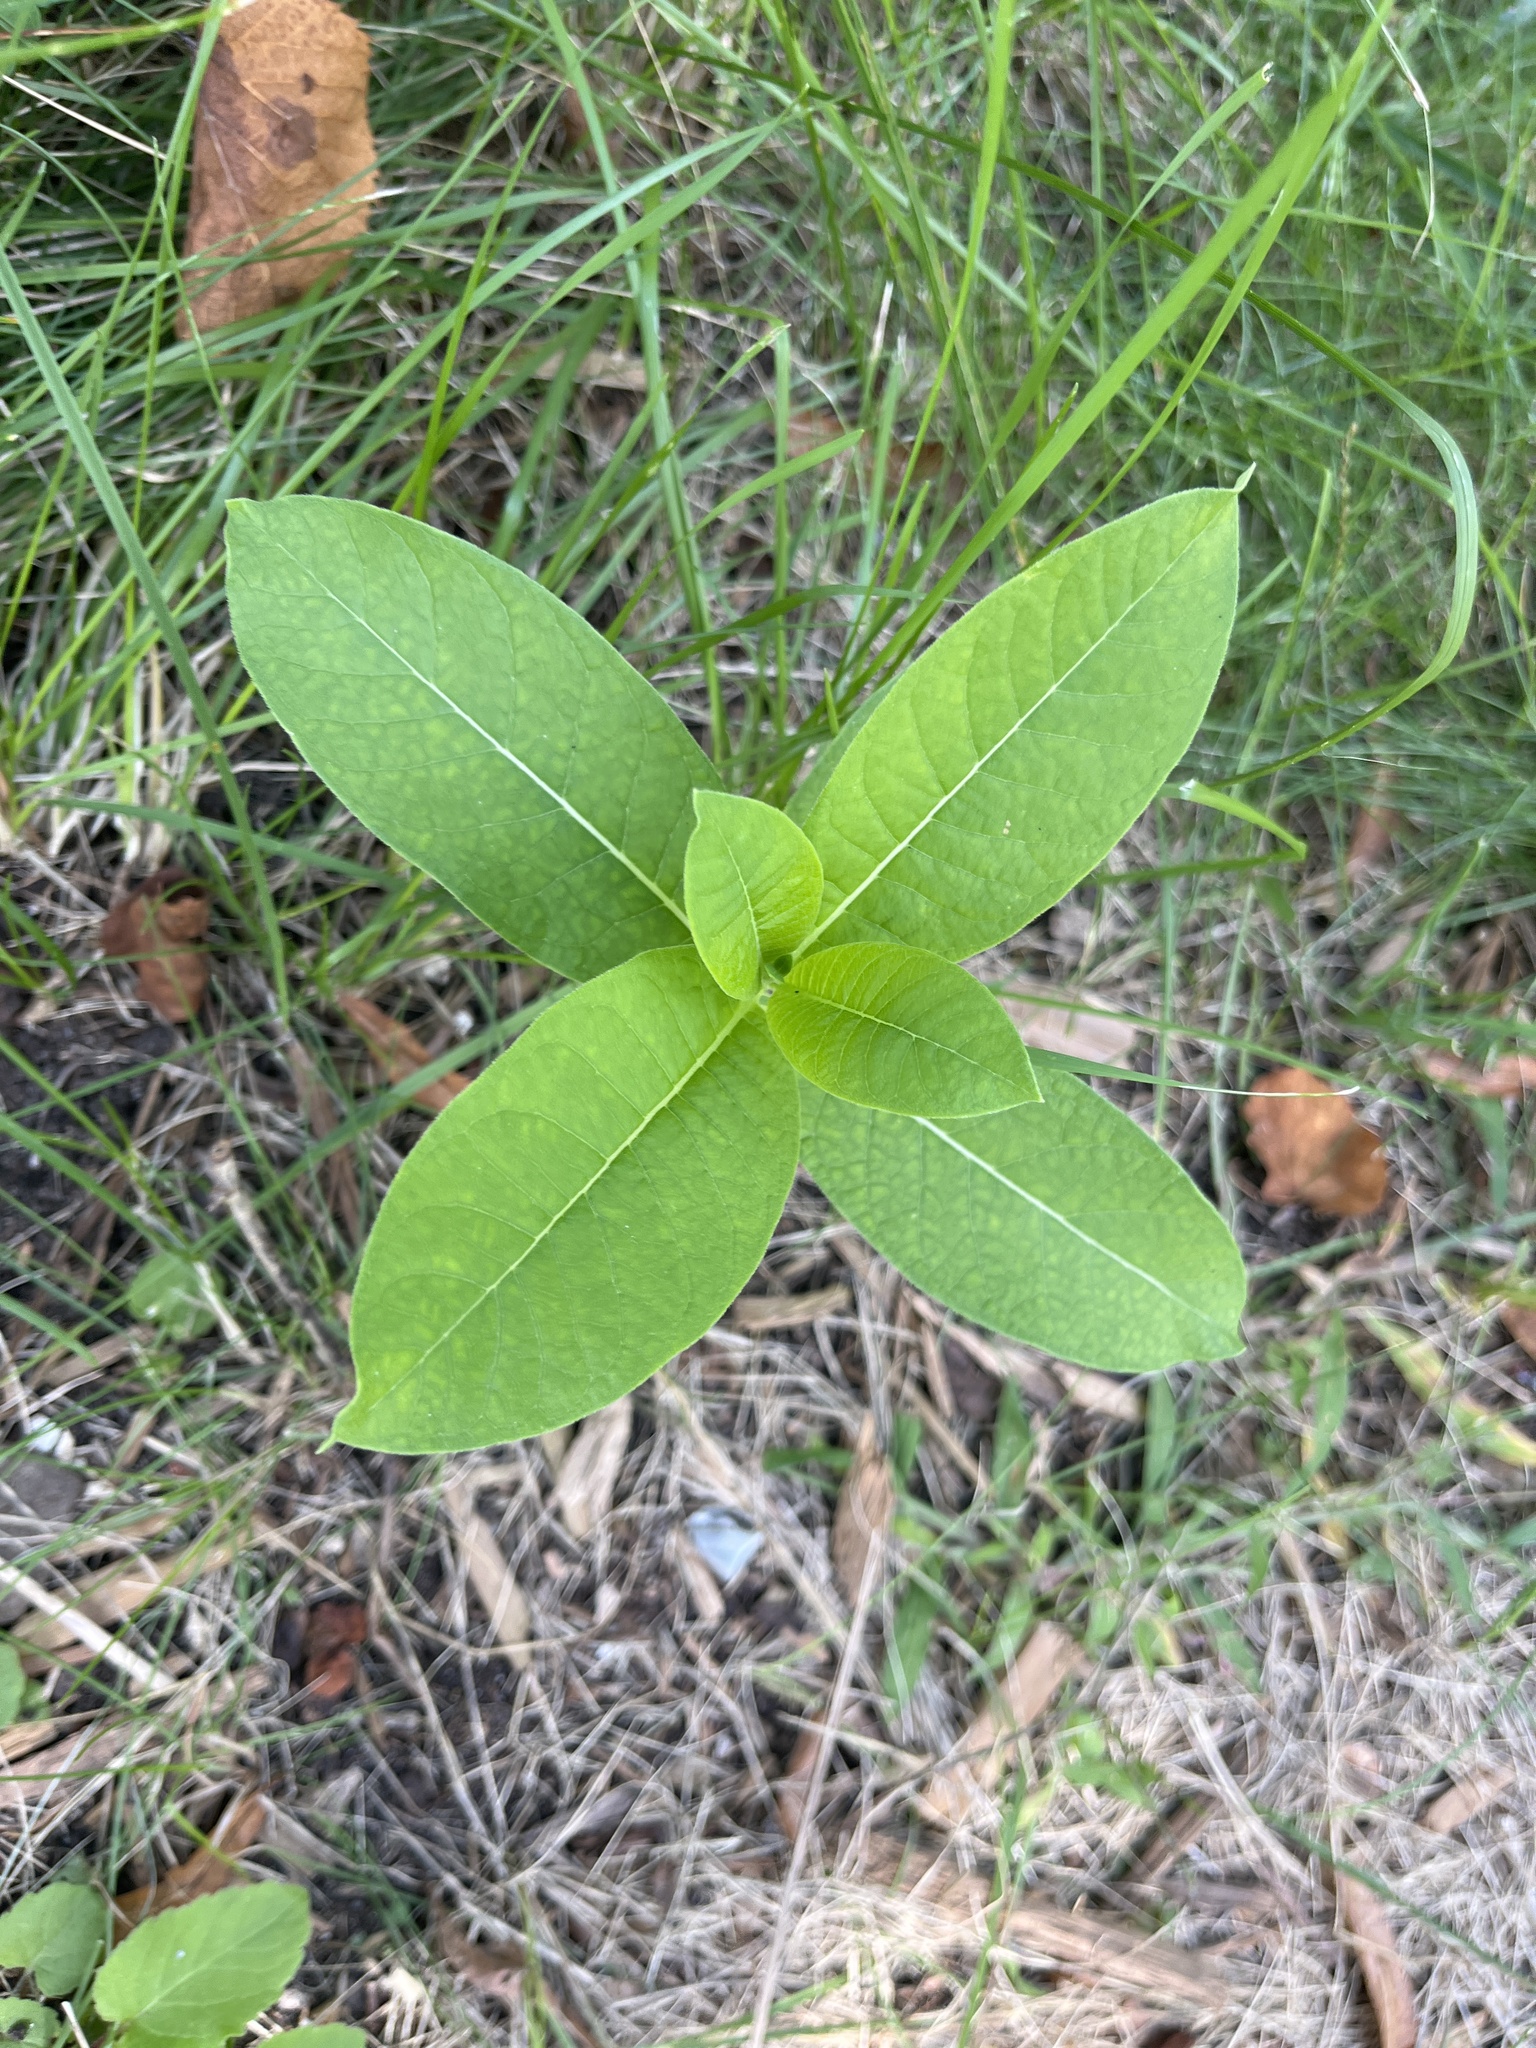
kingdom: Plantae
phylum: Tracheophyta
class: Magnoliopsida
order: Gentianales
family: Apocynaceae
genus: Asclepias
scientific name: Asclepias syriaca
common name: Common milkweed
